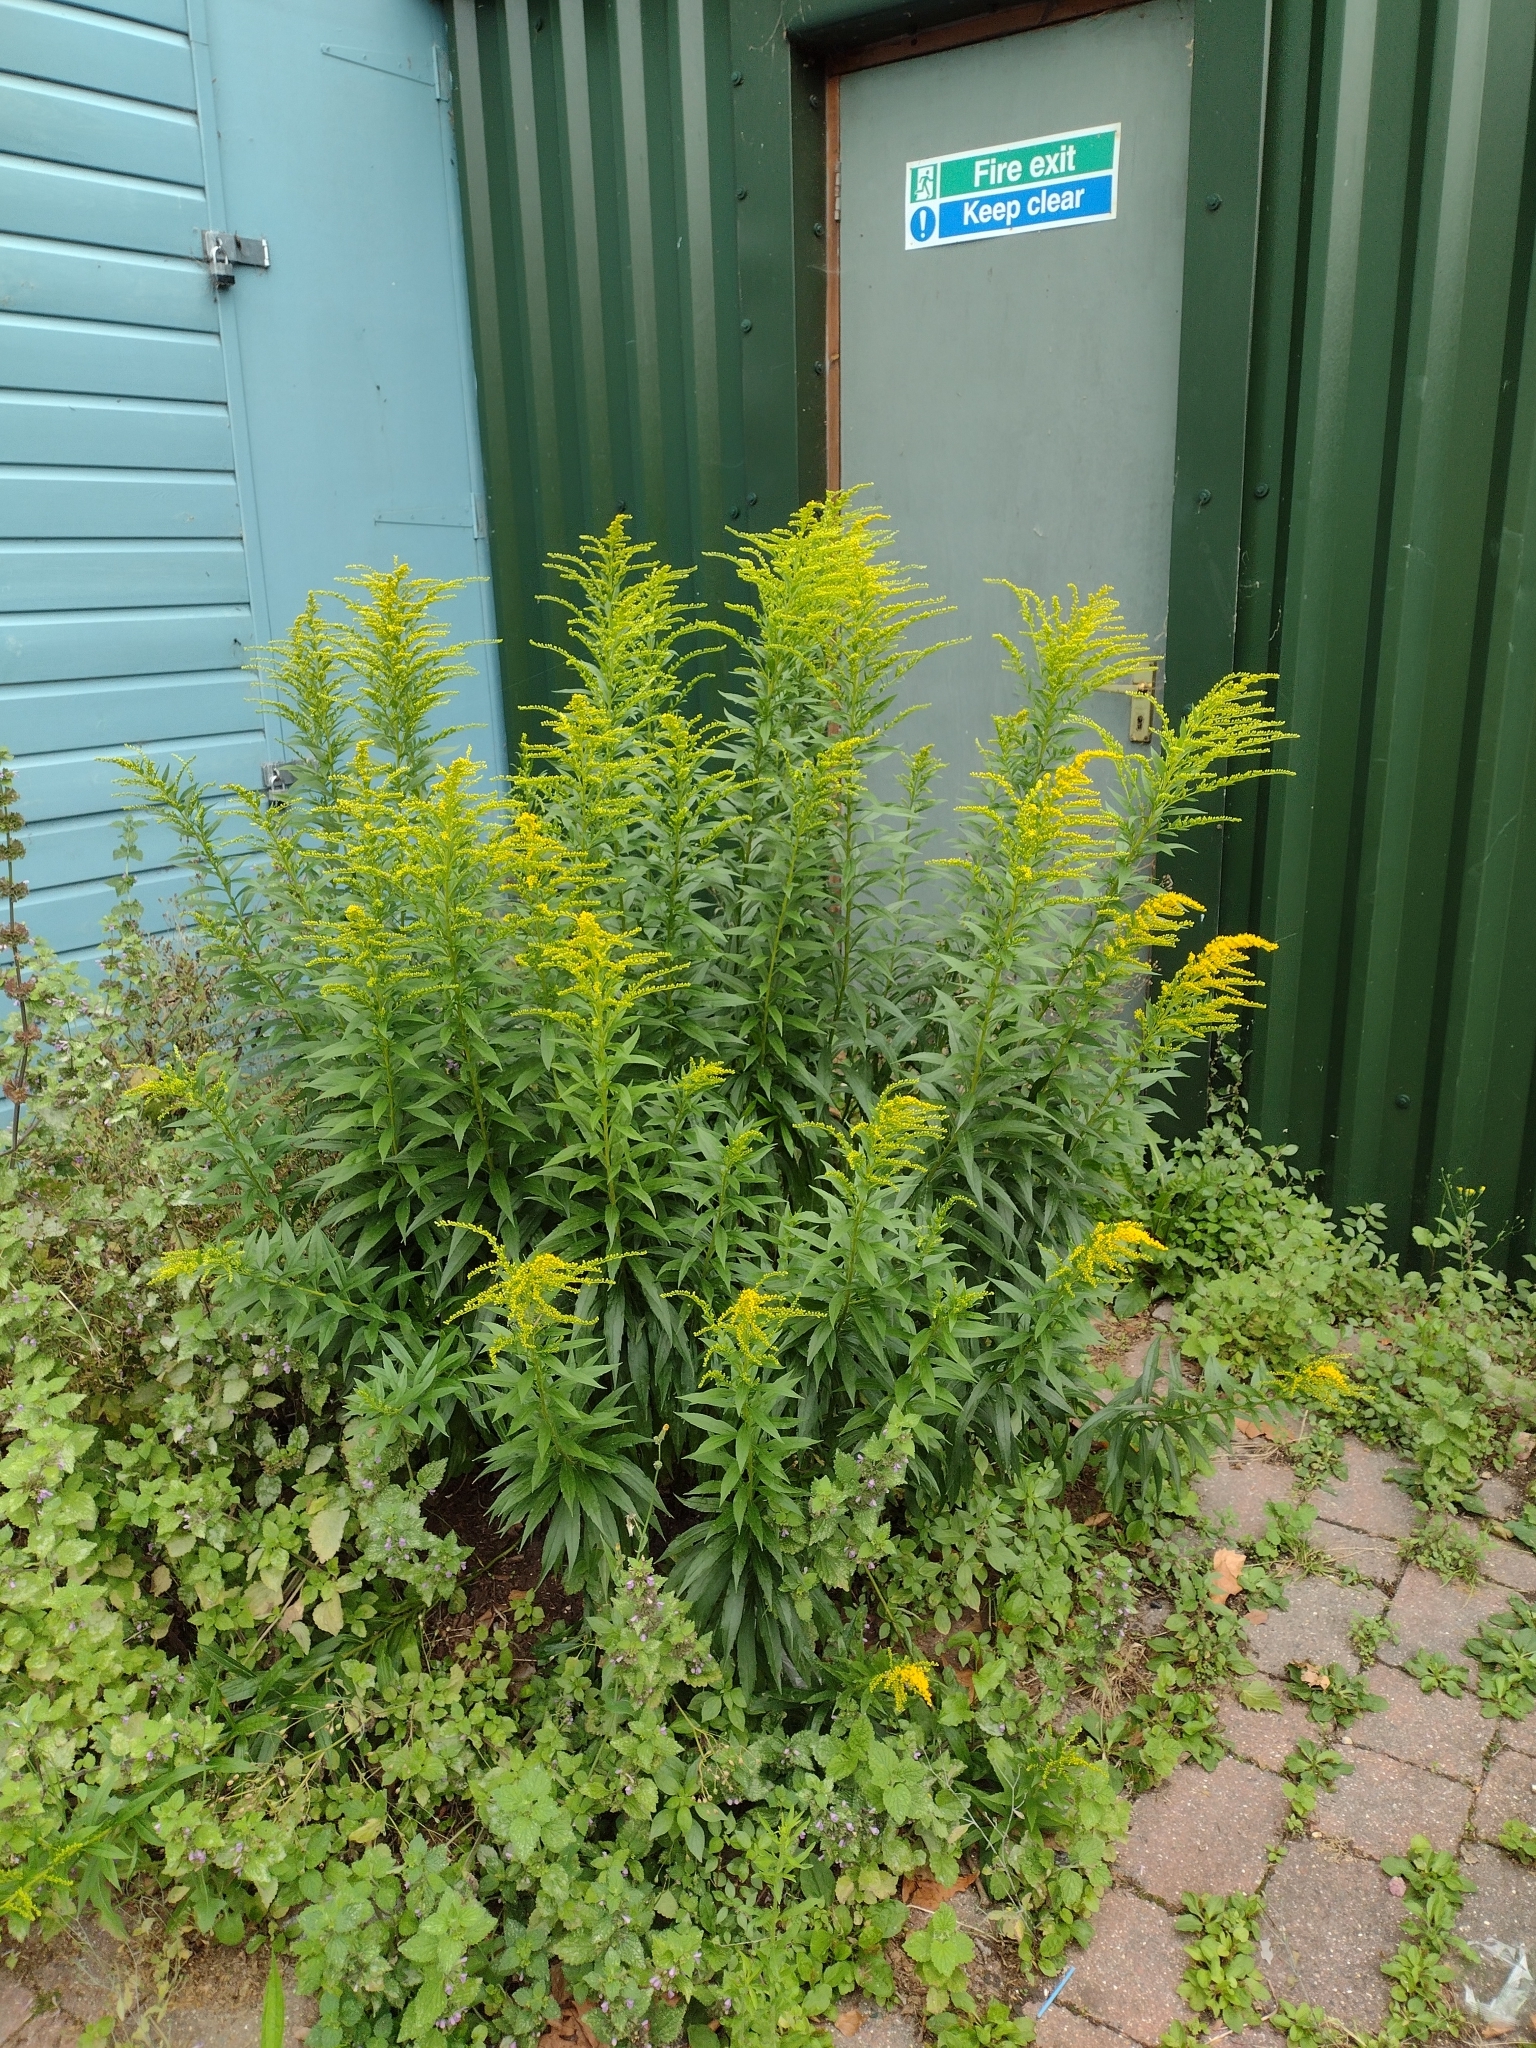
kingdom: Plantae
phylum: Tracheophyta
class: Magnoliopsida
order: Asterales
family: Asteraceae
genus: Solidago
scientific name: Solidago canadensis
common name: Canada goldenrod
